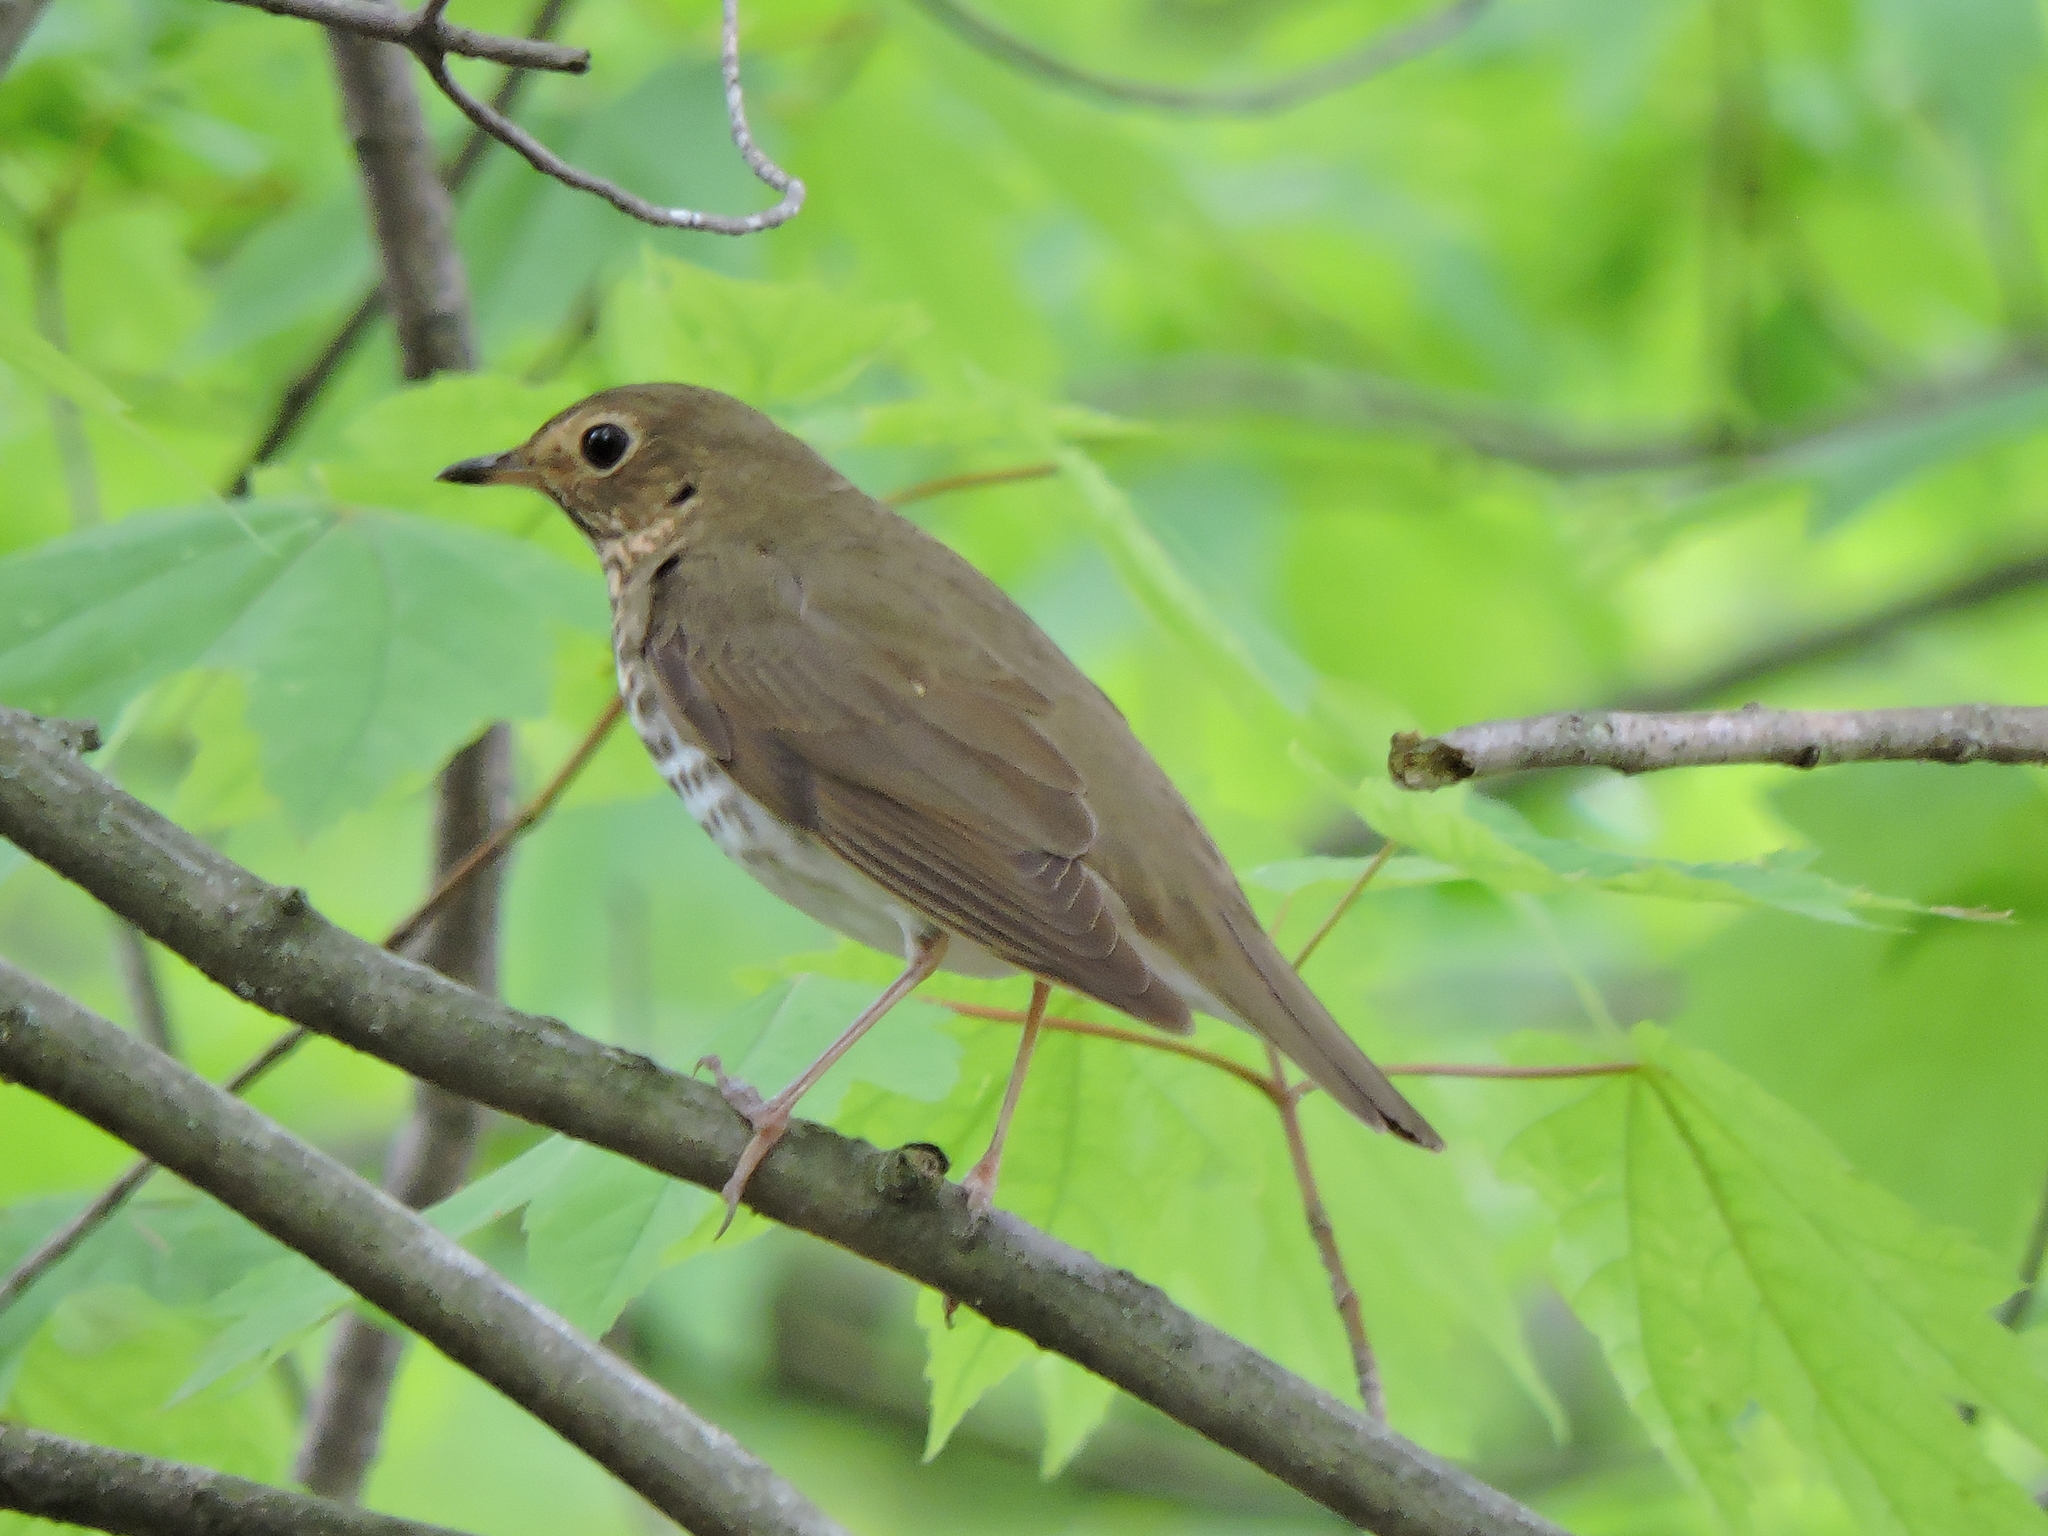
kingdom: Animalia
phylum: Chordata
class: Aves
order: Passeriformes
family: Turdidae
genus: Catharus
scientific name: Catharus ustulatus
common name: Swainson's thrush
